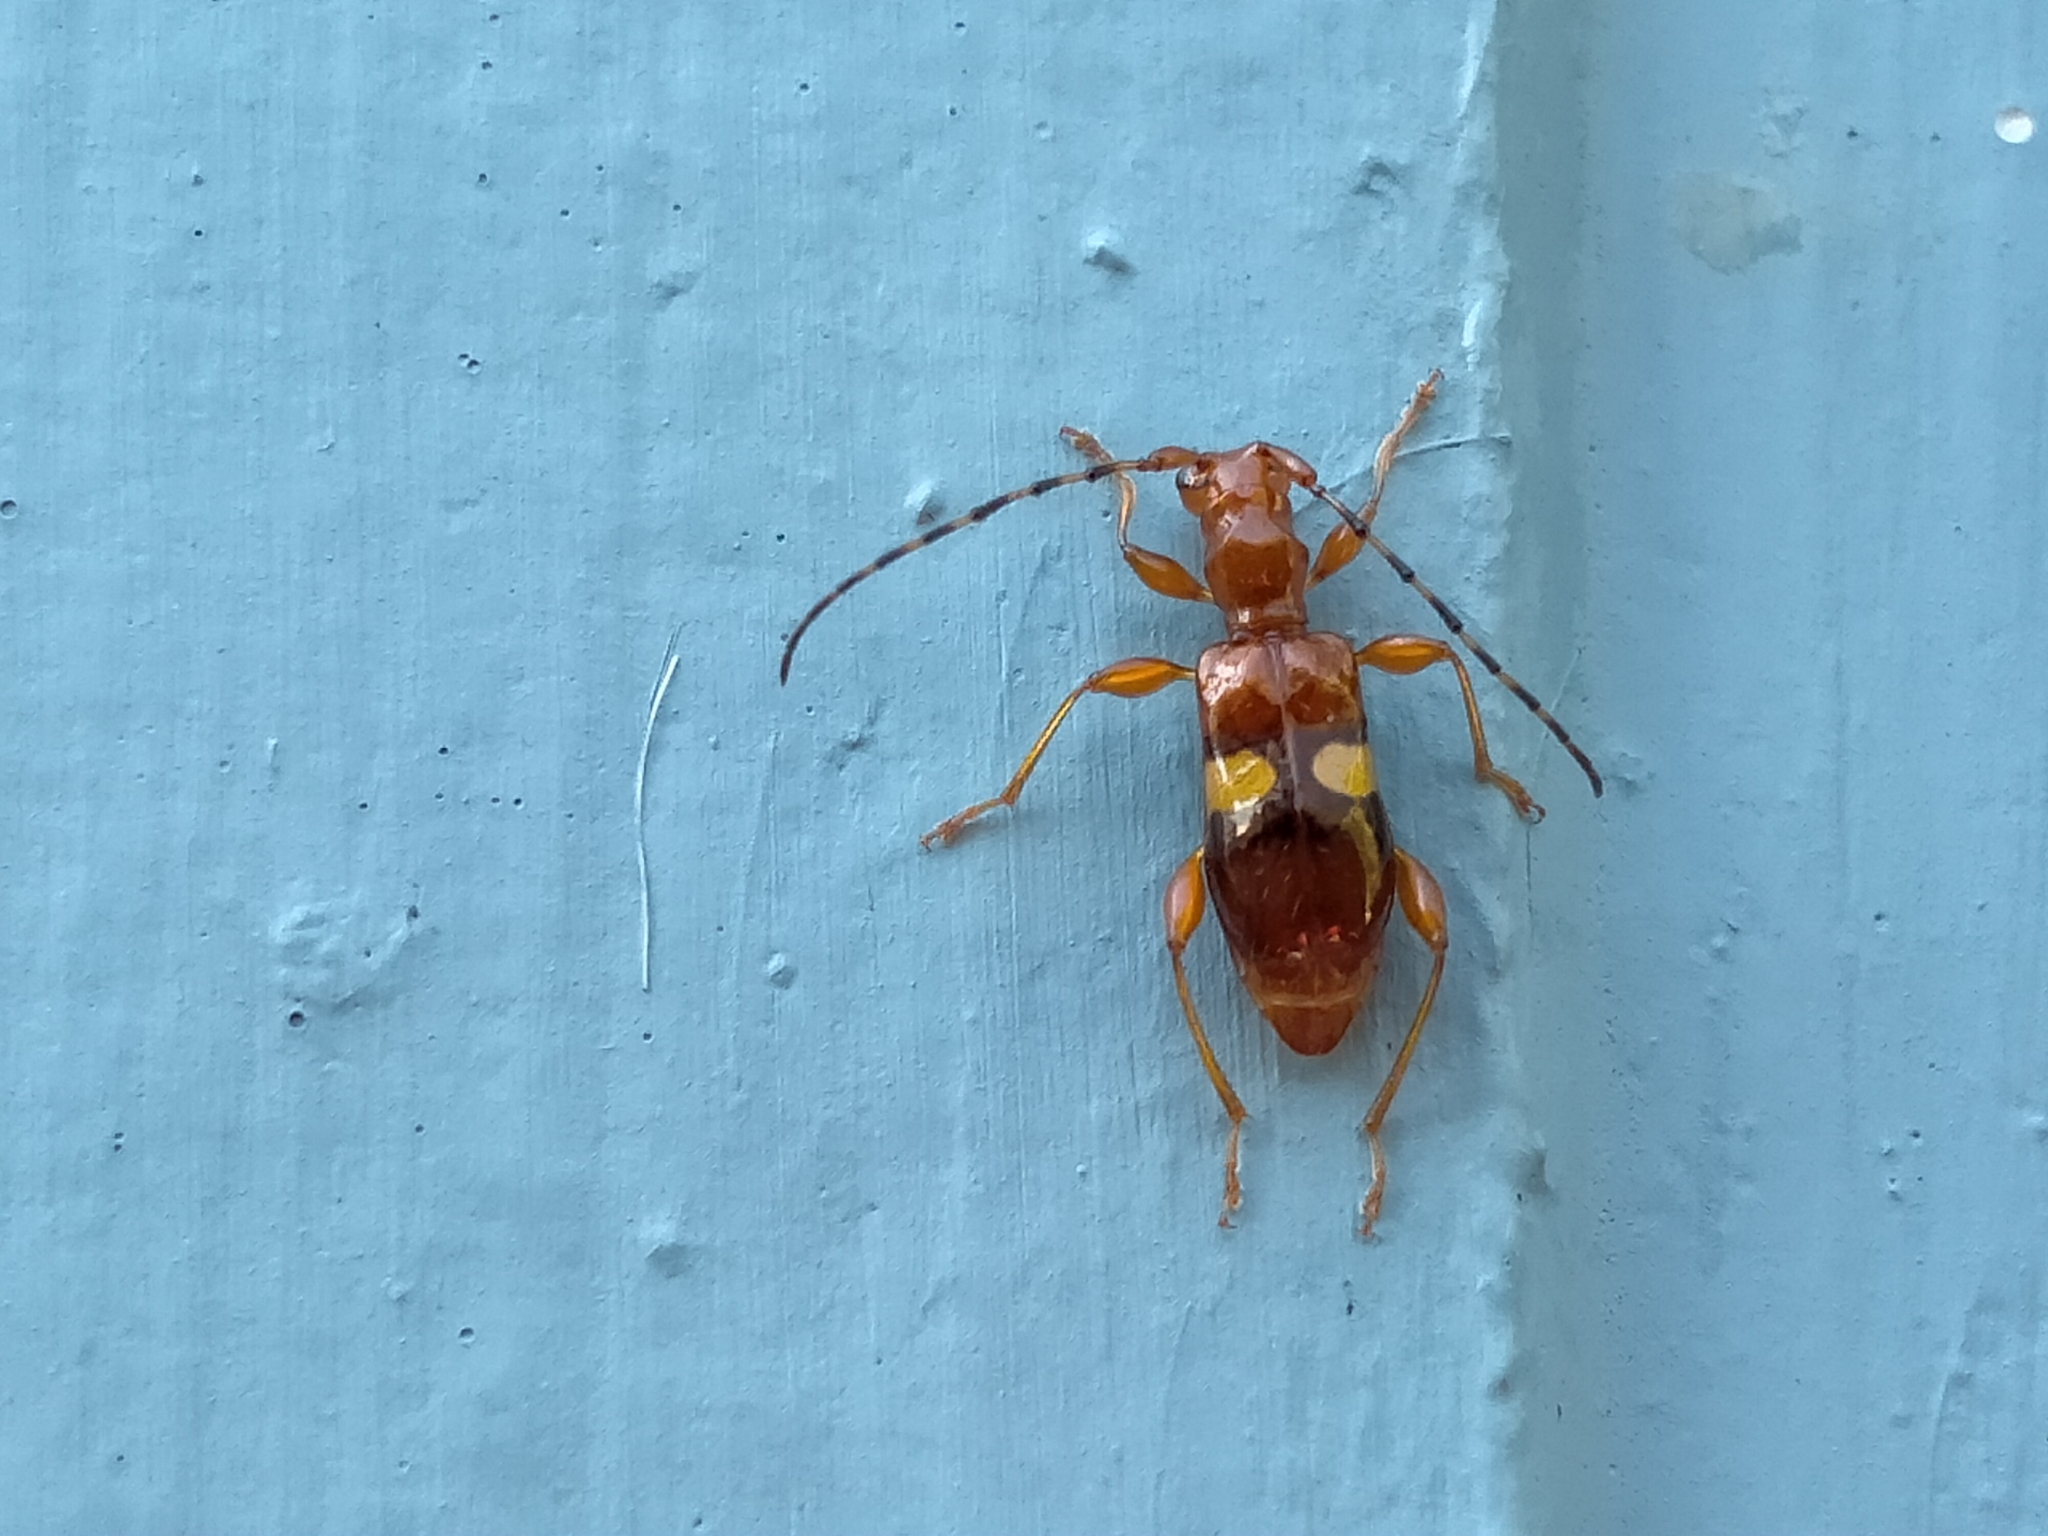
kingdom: Animalia
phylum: Arthropoda
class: Insecta
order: Coleoptera
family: Cerambycidae
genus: Zorion
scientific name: Zorion australe
